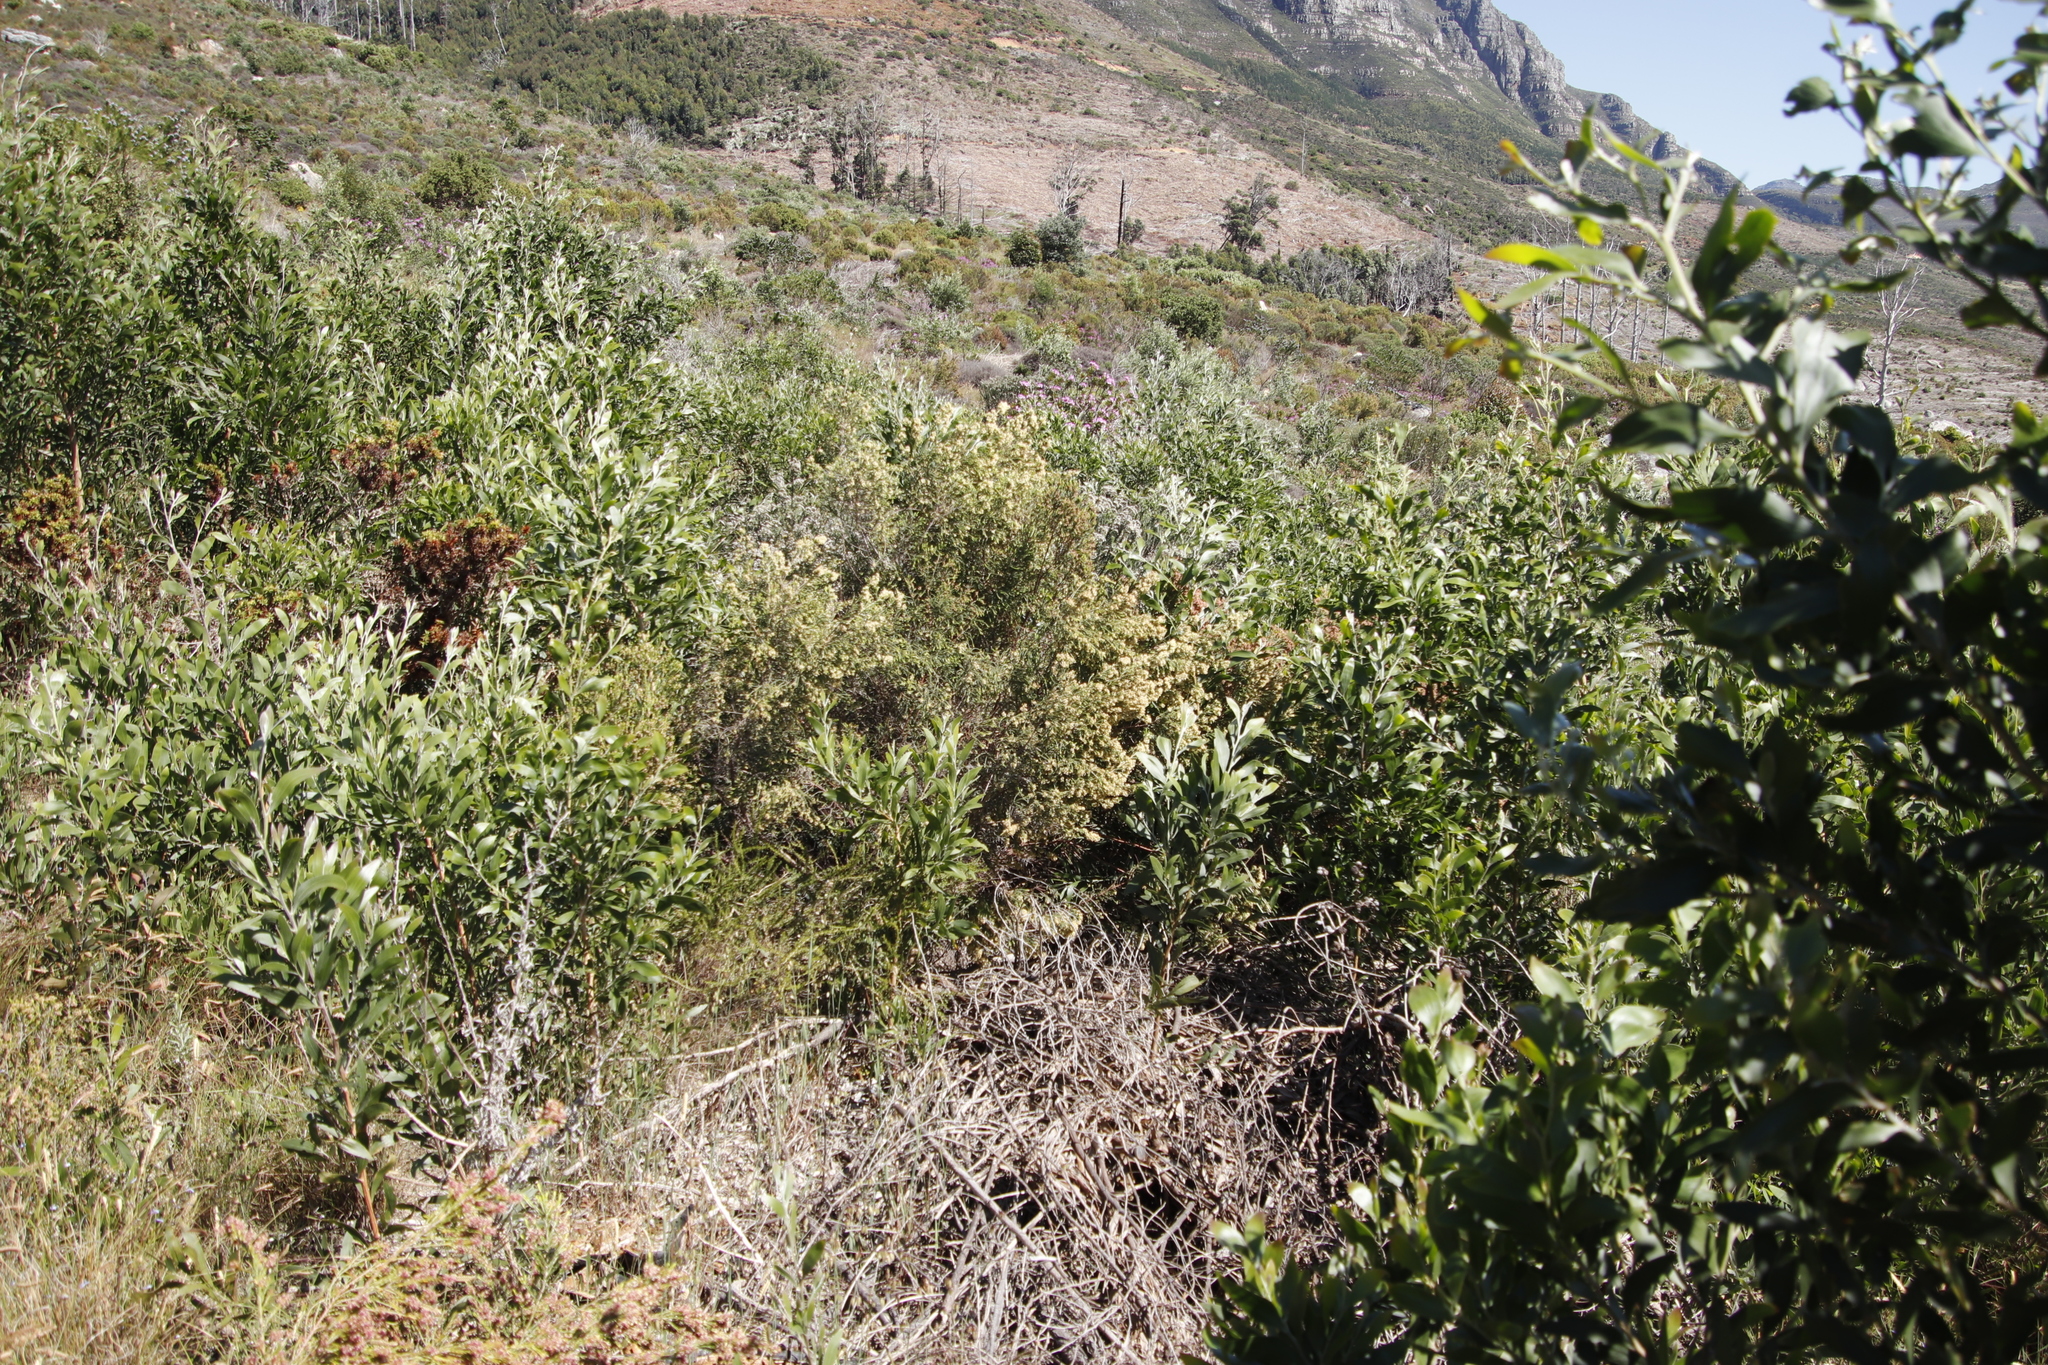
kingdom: Plantae
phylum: Tracheophyta
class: Magnoliopsida
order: Malvales
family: Thymelaeaceae
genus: Passerina
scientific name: Passerina corymbosa
